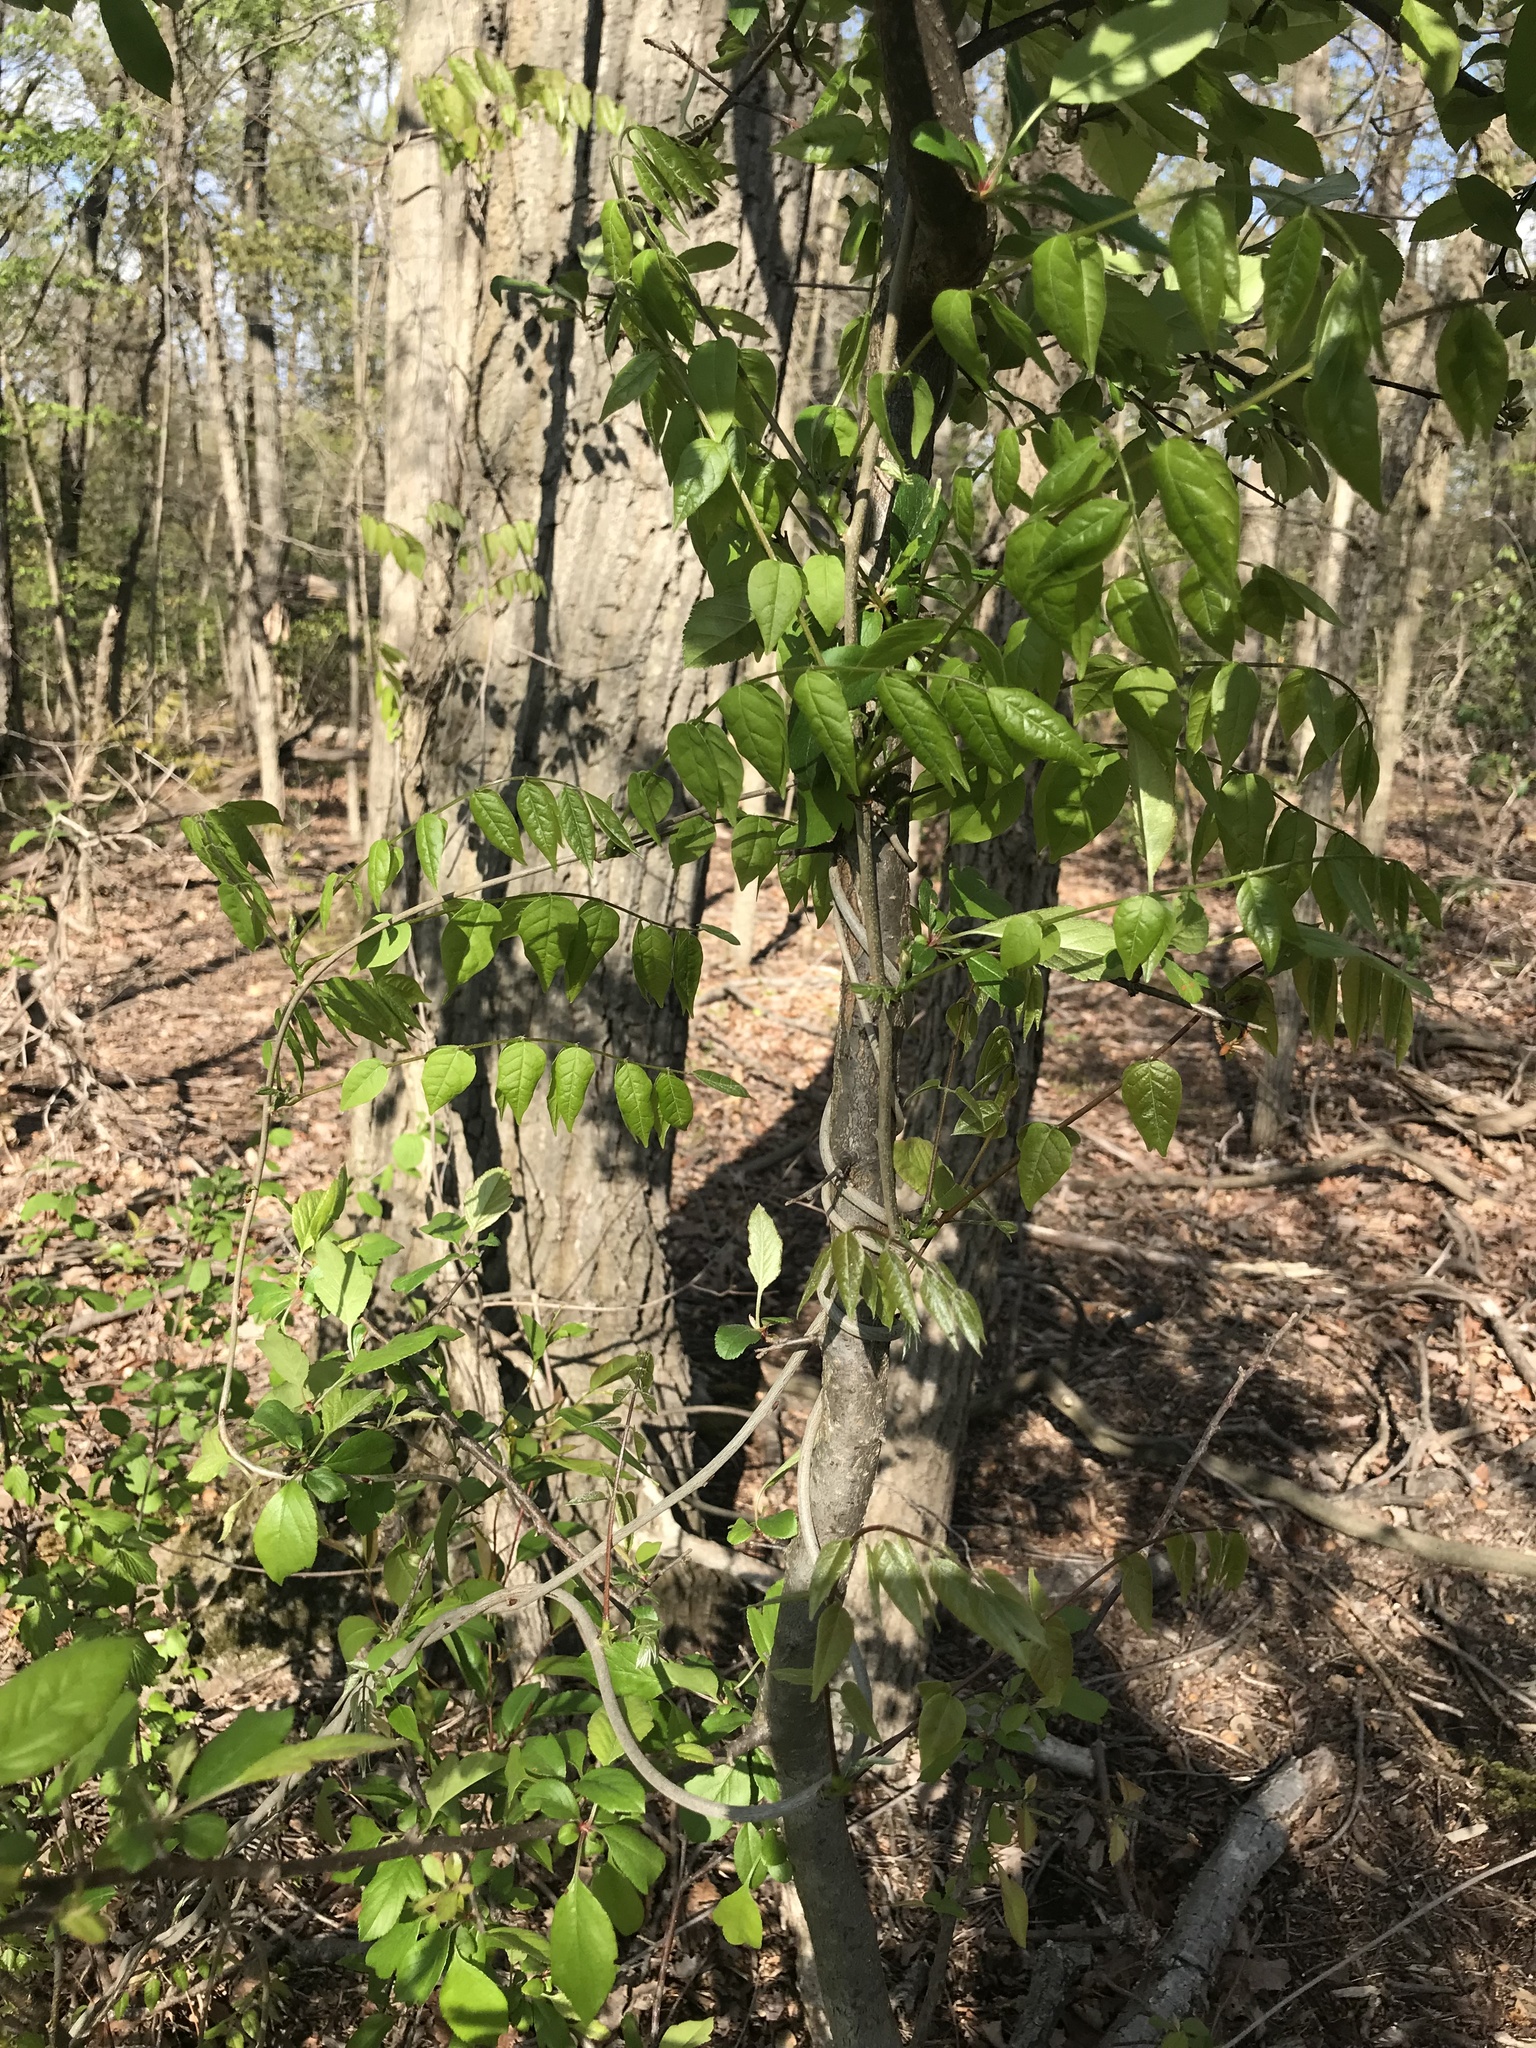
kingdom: Plantae
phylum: Tracheophyta
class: Magnoliopsida
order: Fabales
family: Fabaceae
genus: Wisteria
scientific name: Wisteria floribunda
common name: Japanese wisteria
